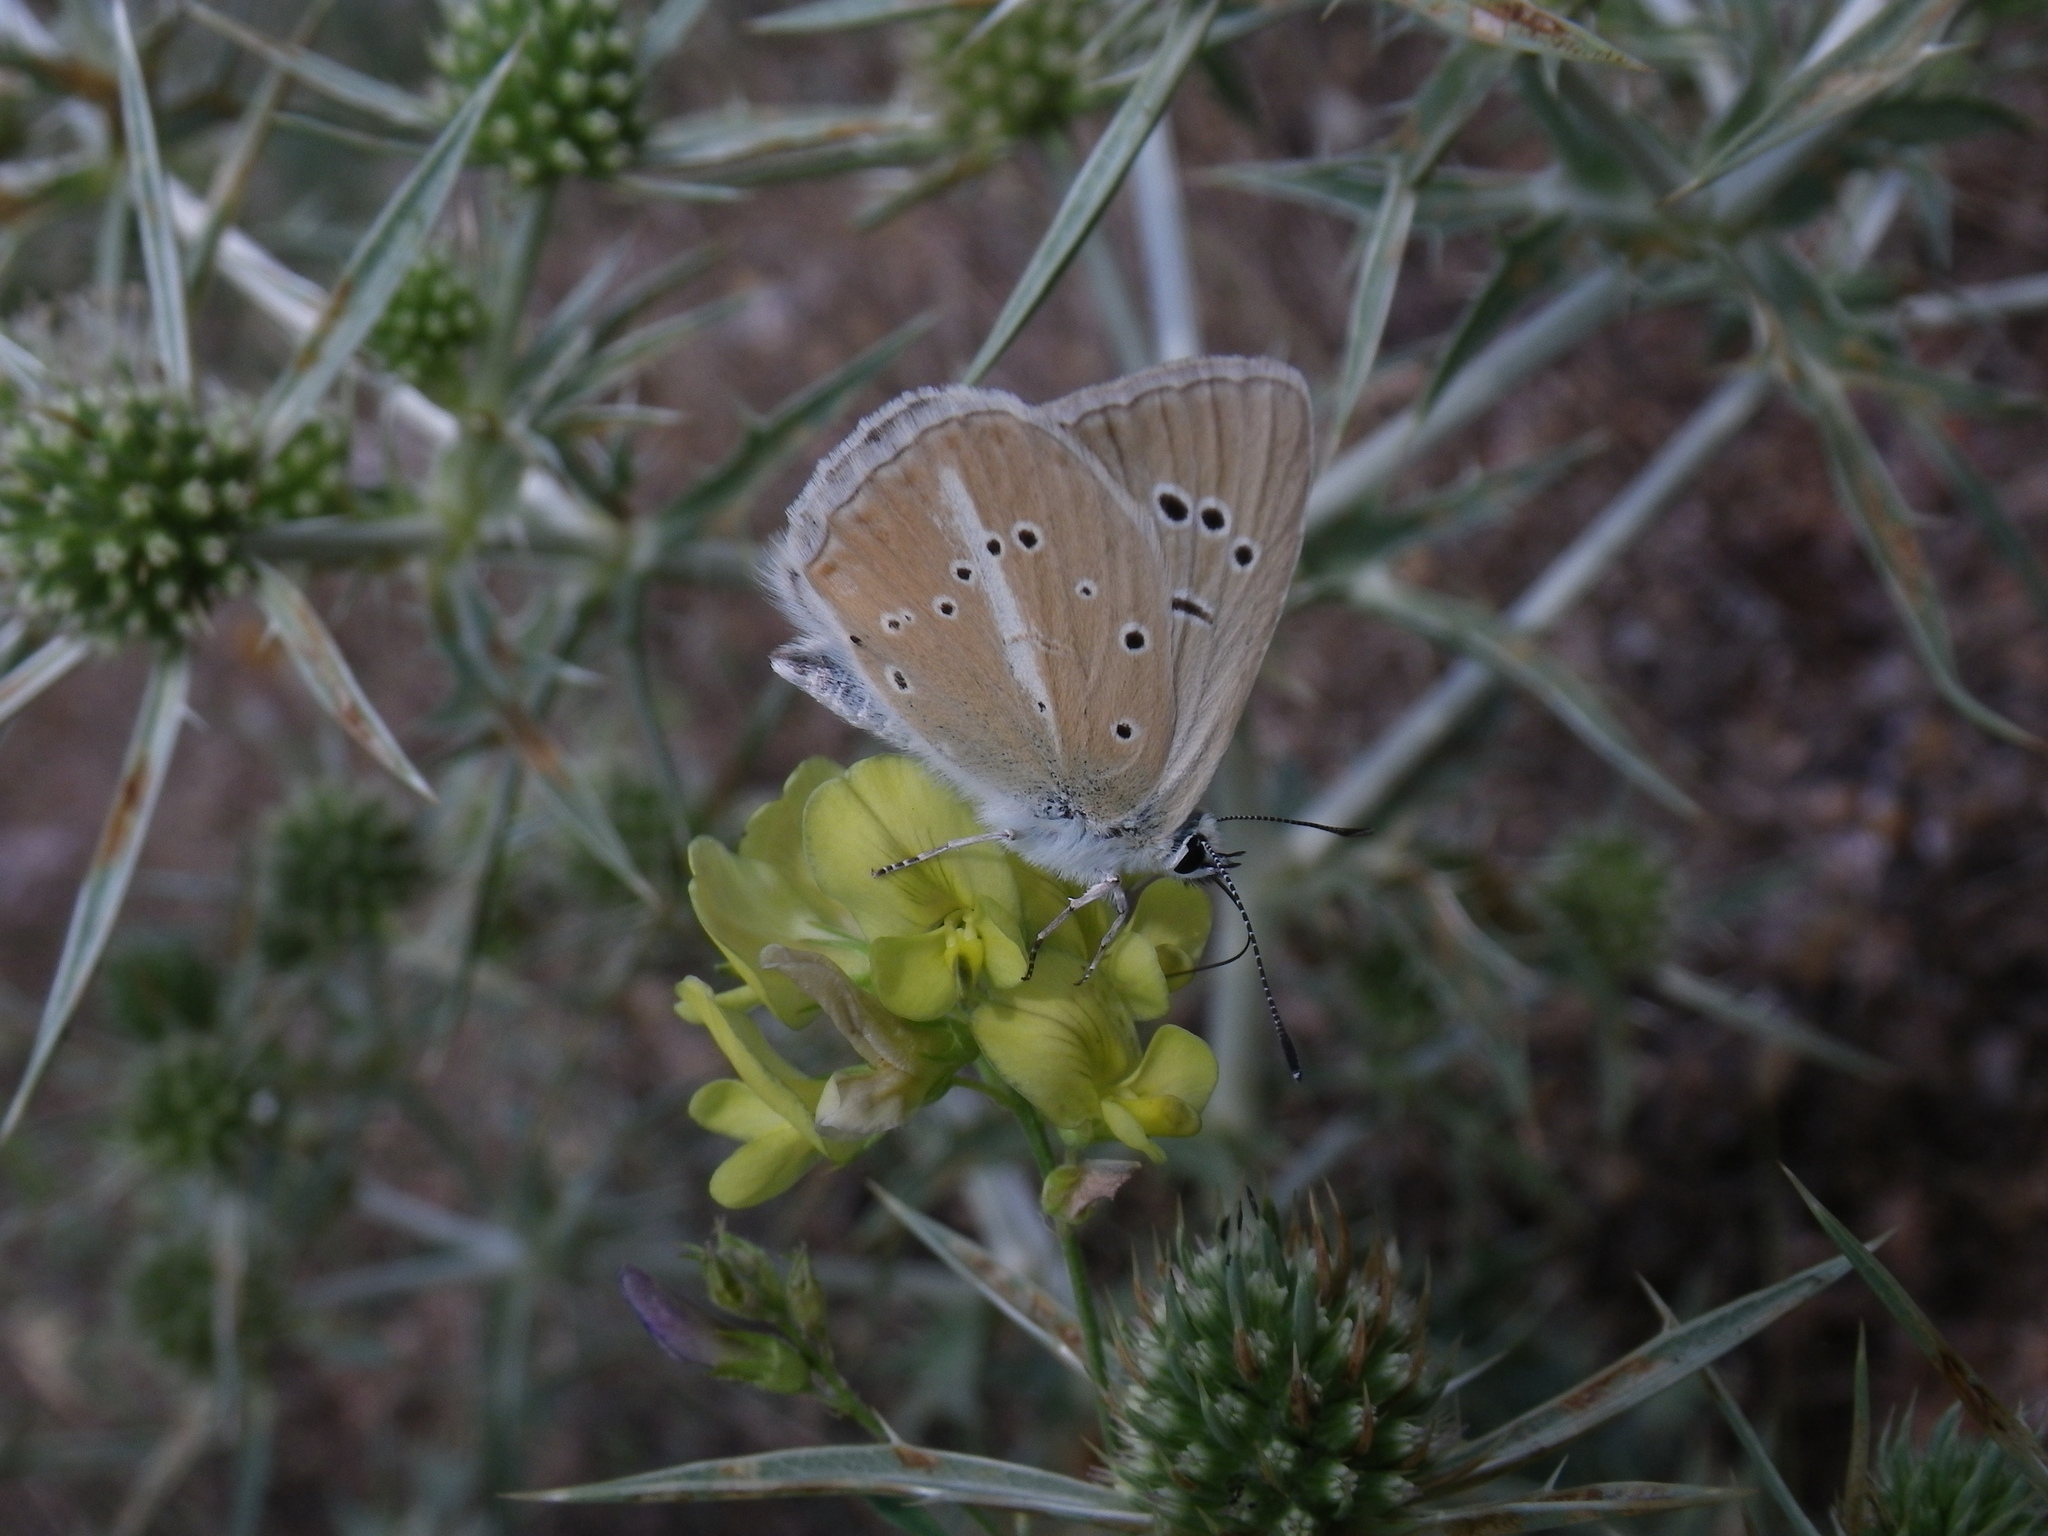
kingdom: Animalia
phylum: Arthropoda
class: Insecta
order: Lepidoptera
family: Lycaenidae
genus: Agrodiaetus
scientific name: Agrodiaetus dolus
